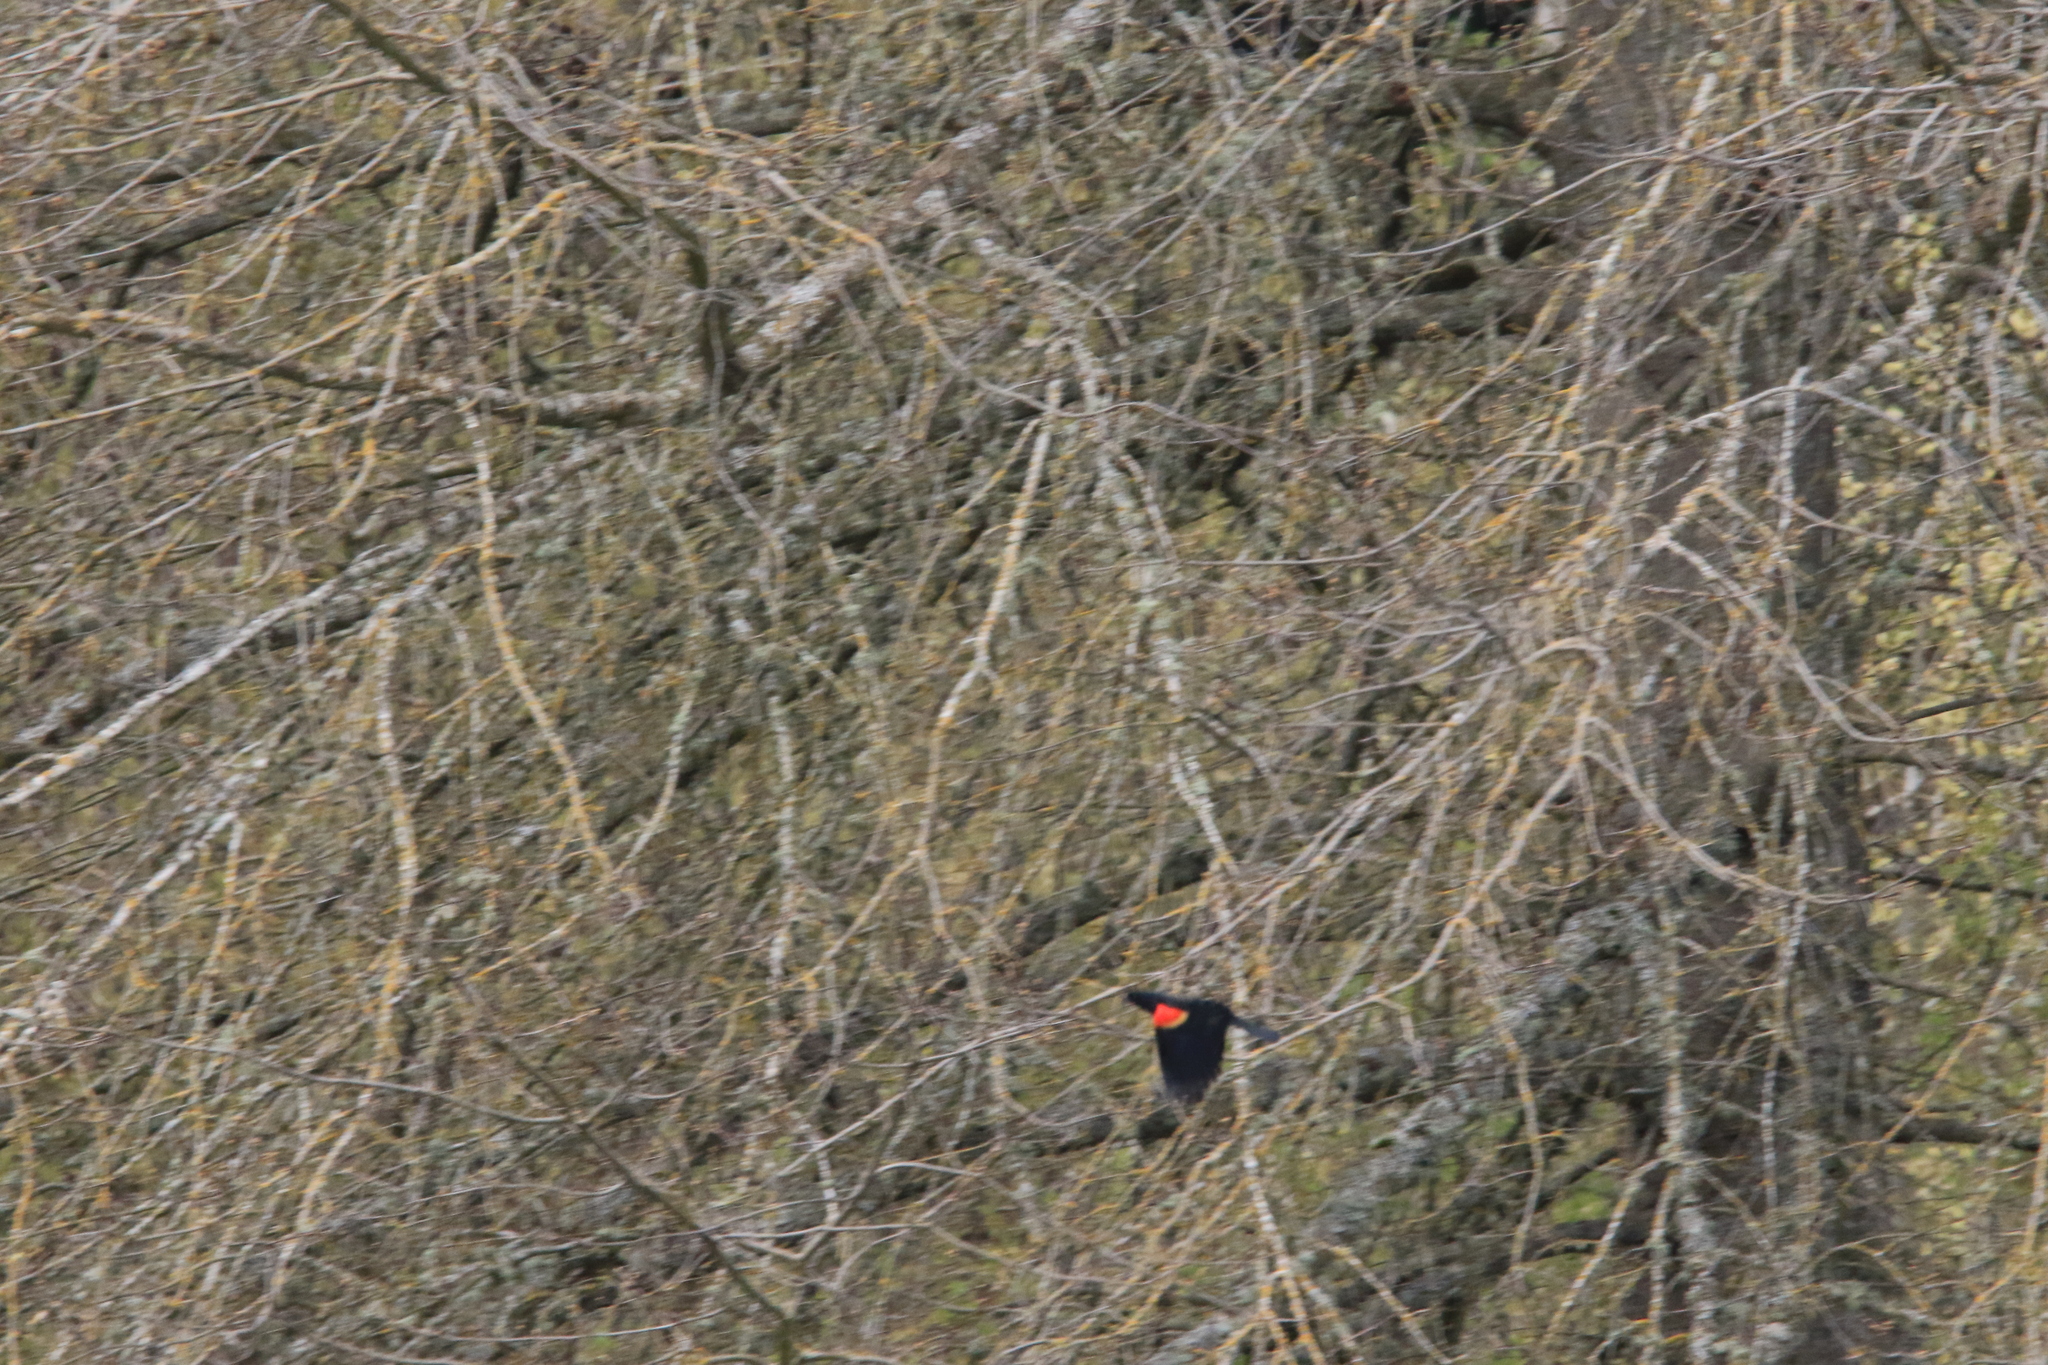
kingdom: Animalia
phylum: Chordata
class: Aves
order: Passeriformes
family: Icteridae
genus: Agelaius
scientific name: Agelaius phoeniceus
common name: Red-winged blackbird
